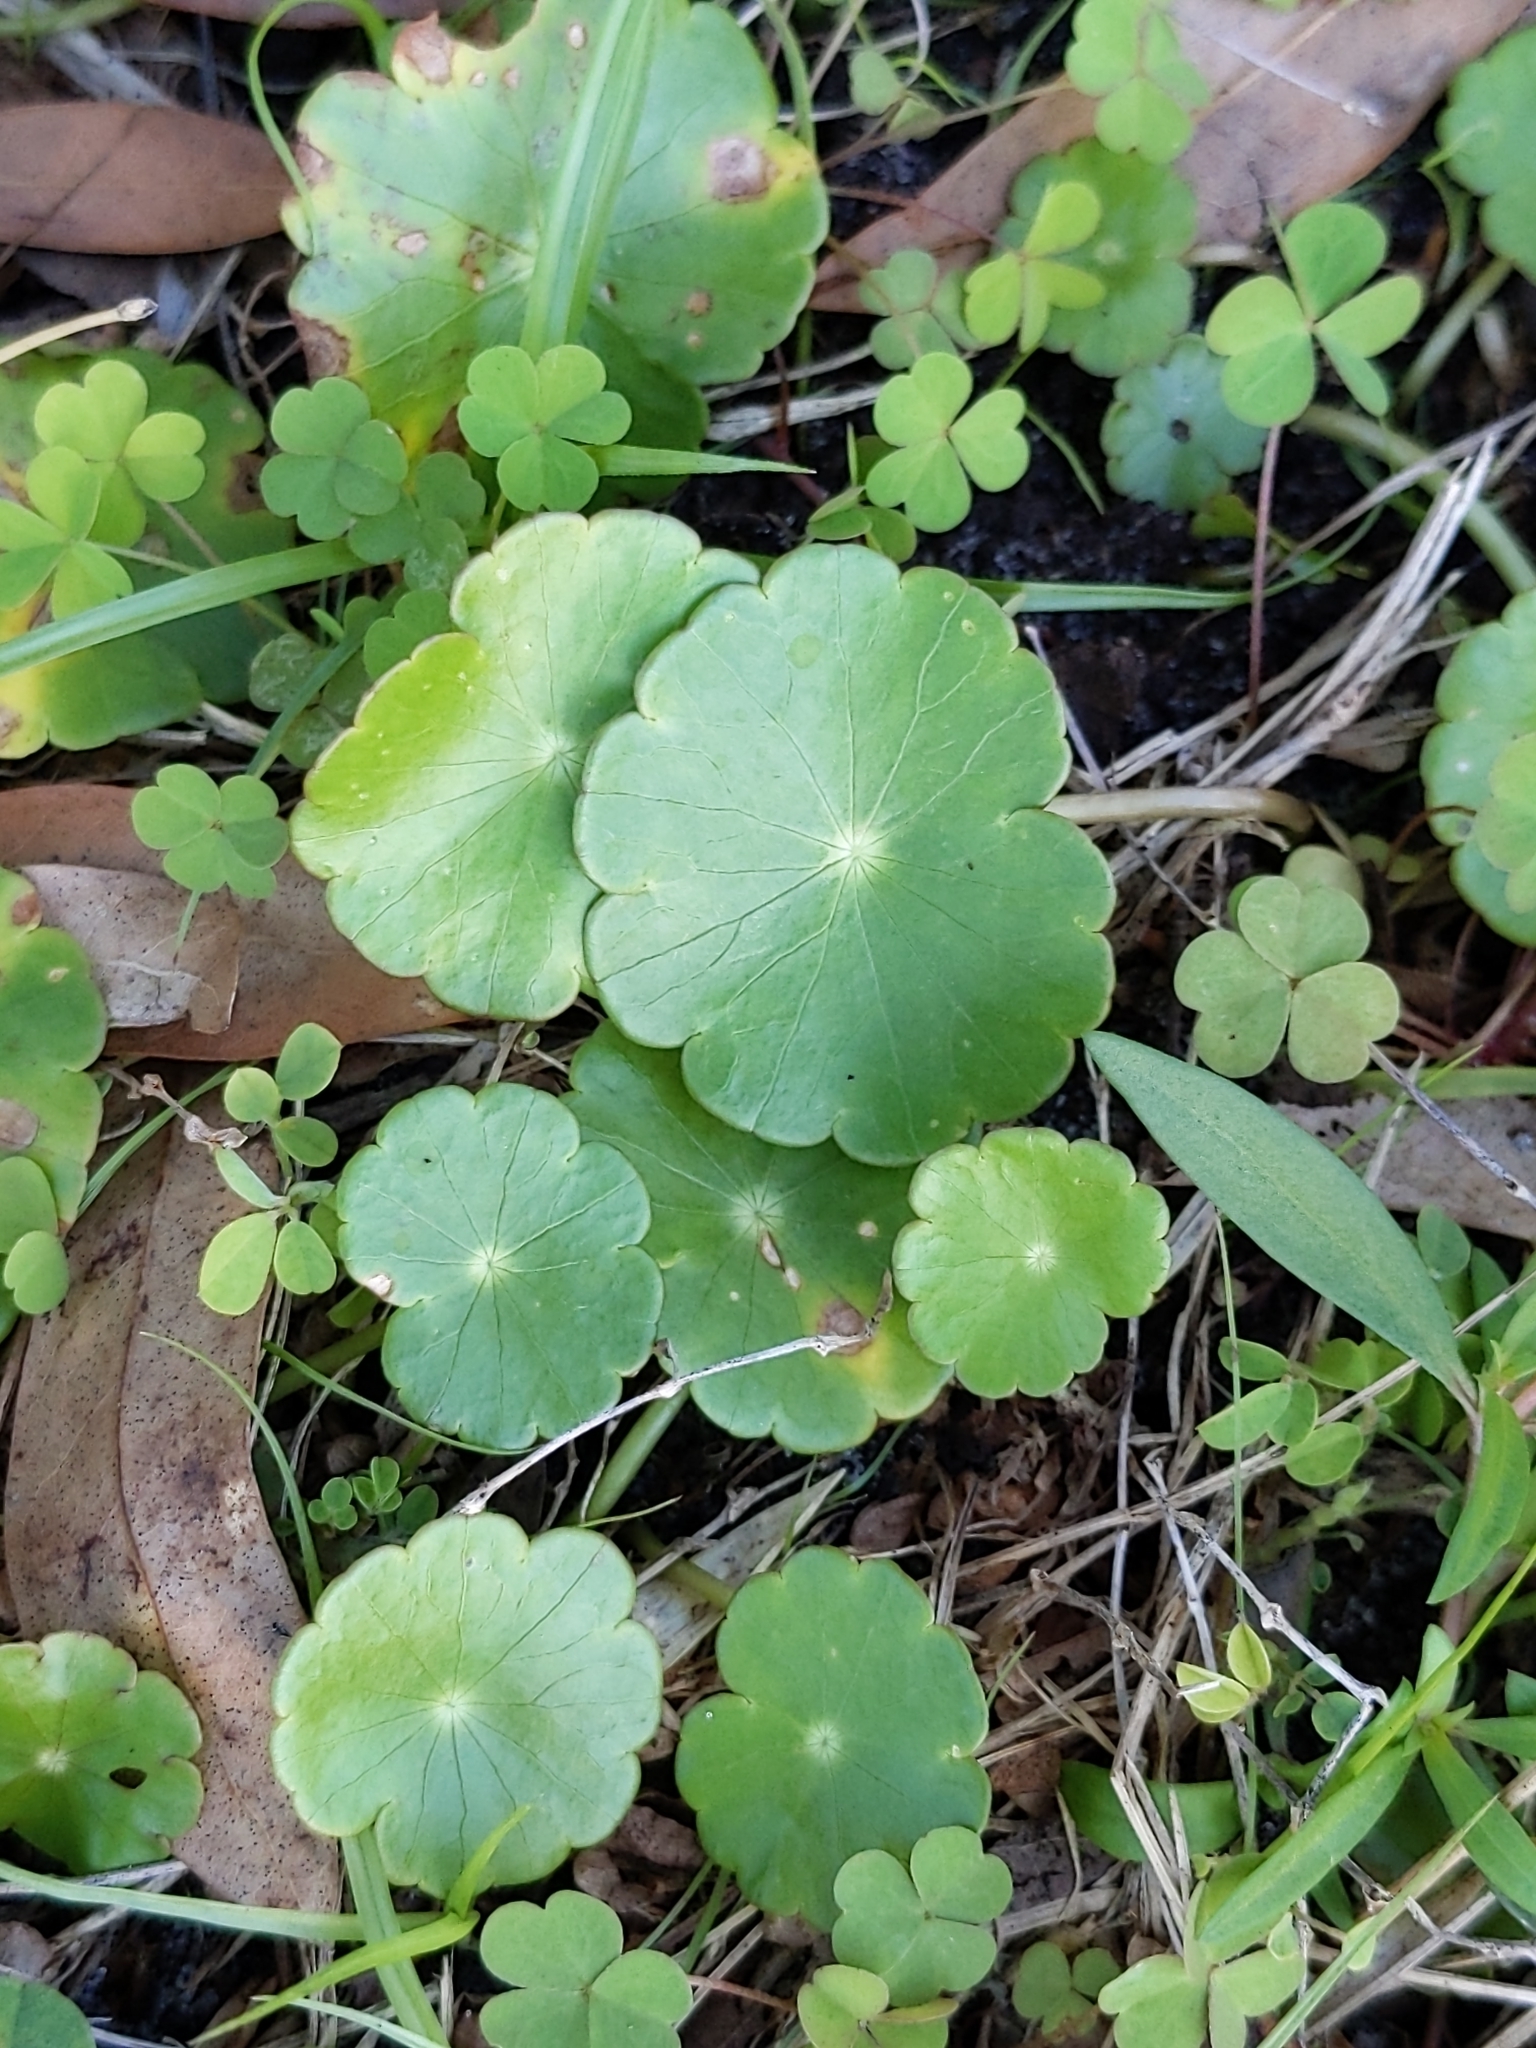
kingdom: Plantae
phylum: Tracheophyta
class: Magnoliopsida
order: Apiales
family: Araliaceae
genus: Hydrocotyle
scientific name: Hydrocotyle umbellata
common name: Water pennywort
